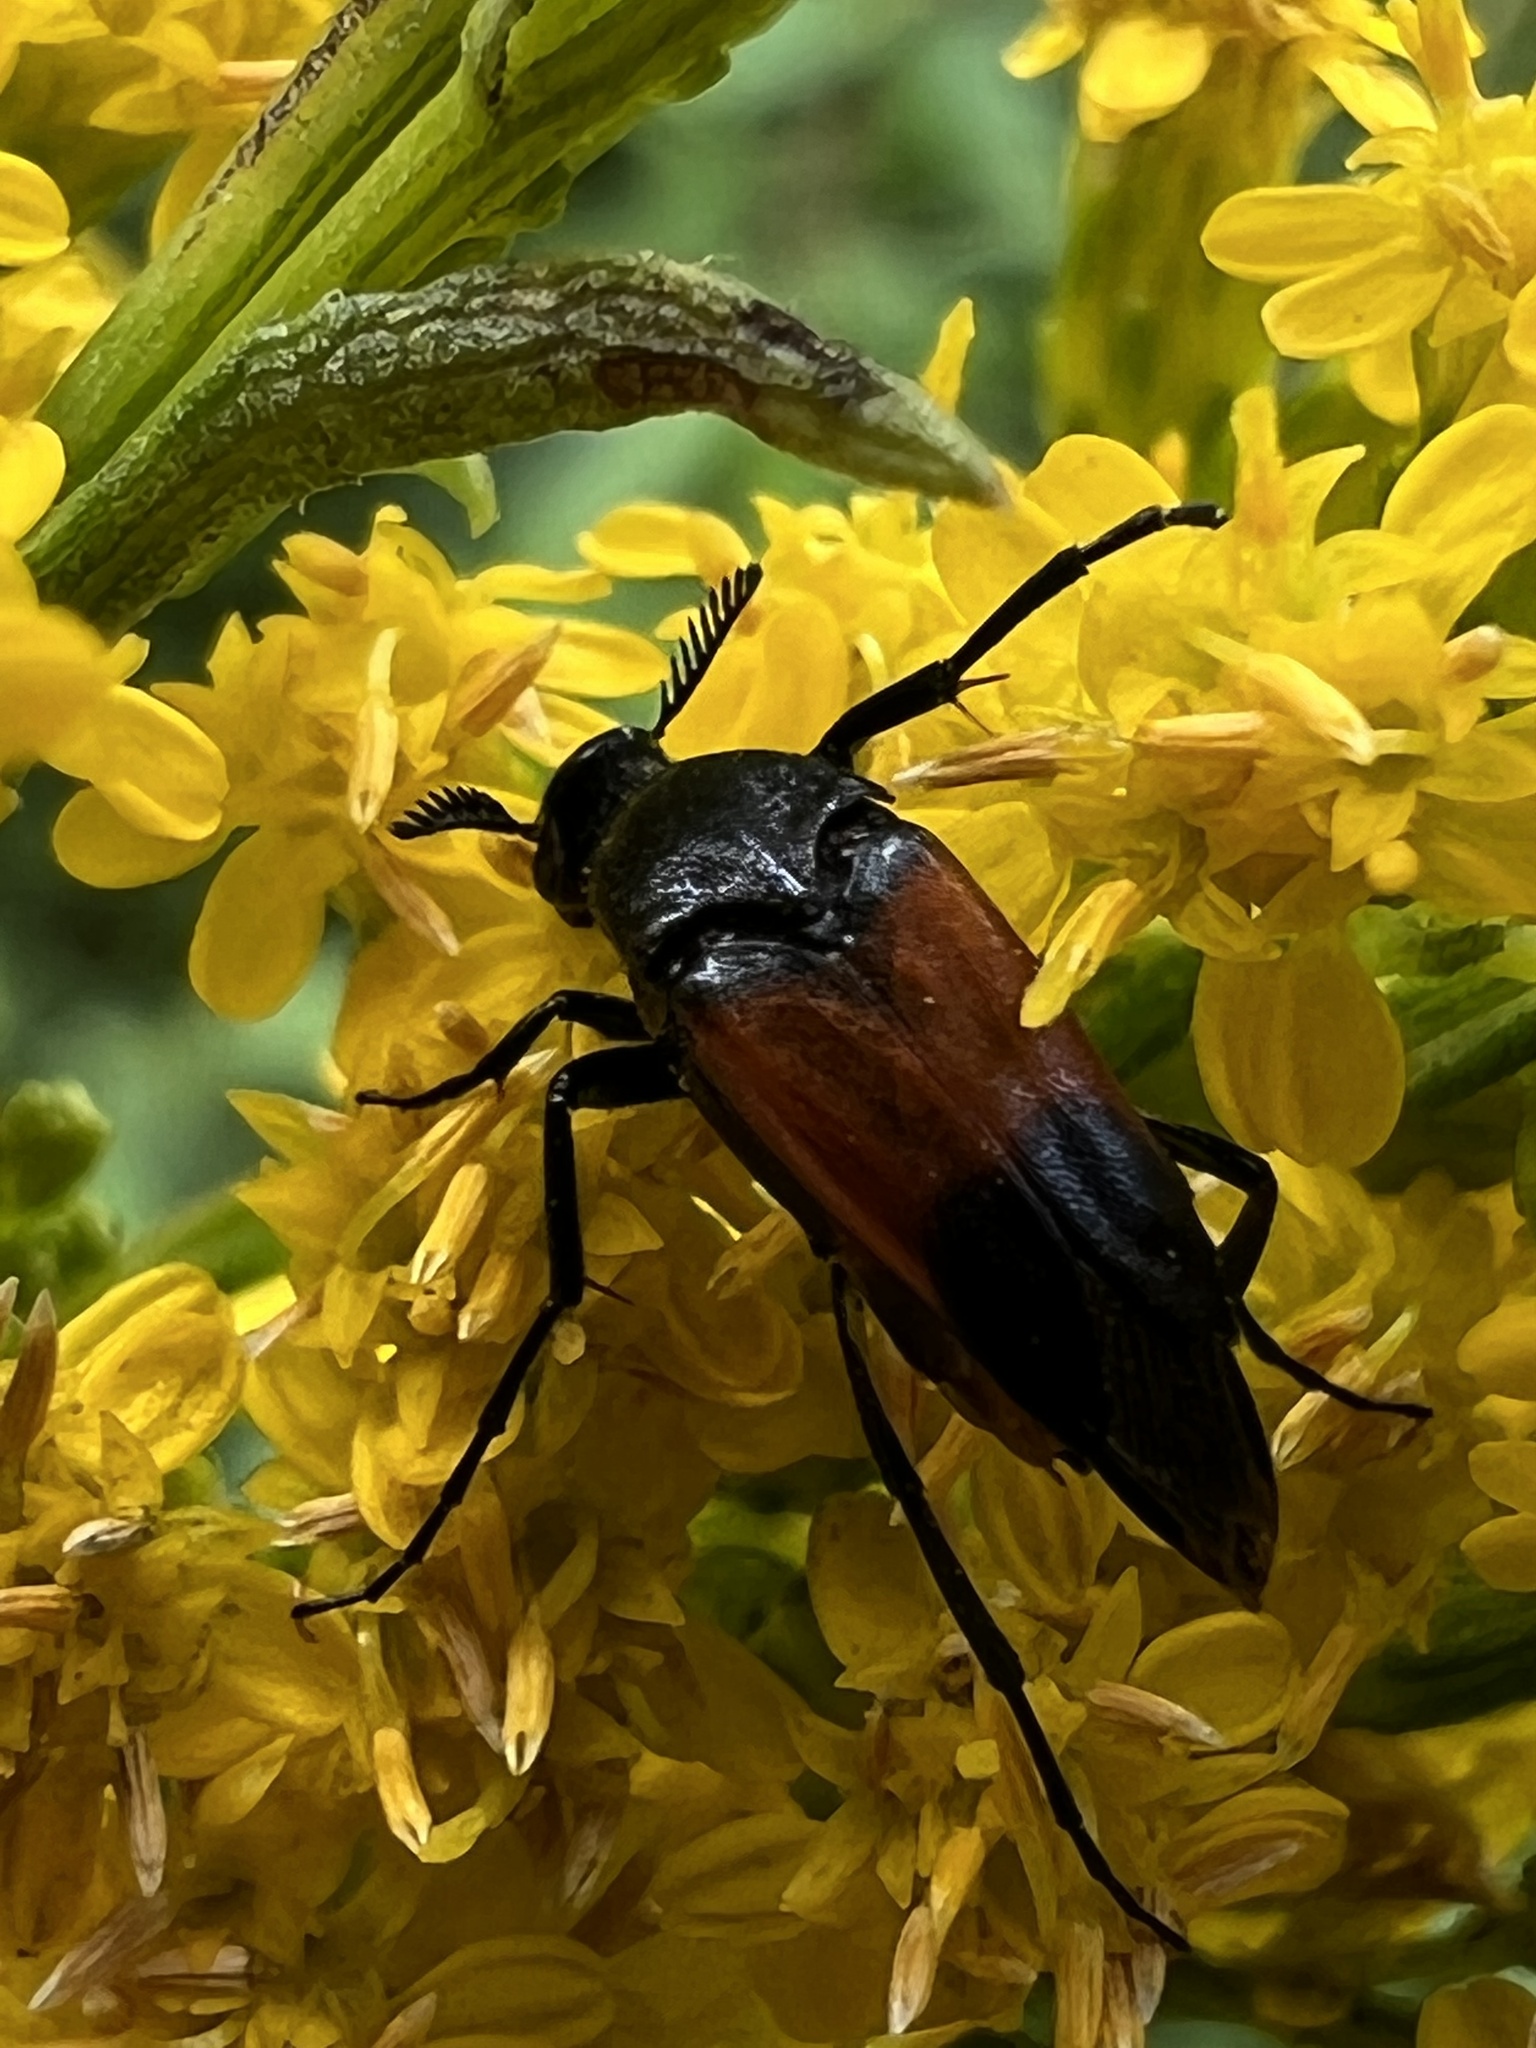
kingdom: Animalia
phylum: Arthropoda
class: Insecta
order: Coleoptera
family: Ripiphoridae
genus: Macrosiagon
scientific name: Macrosiagon cruentum
